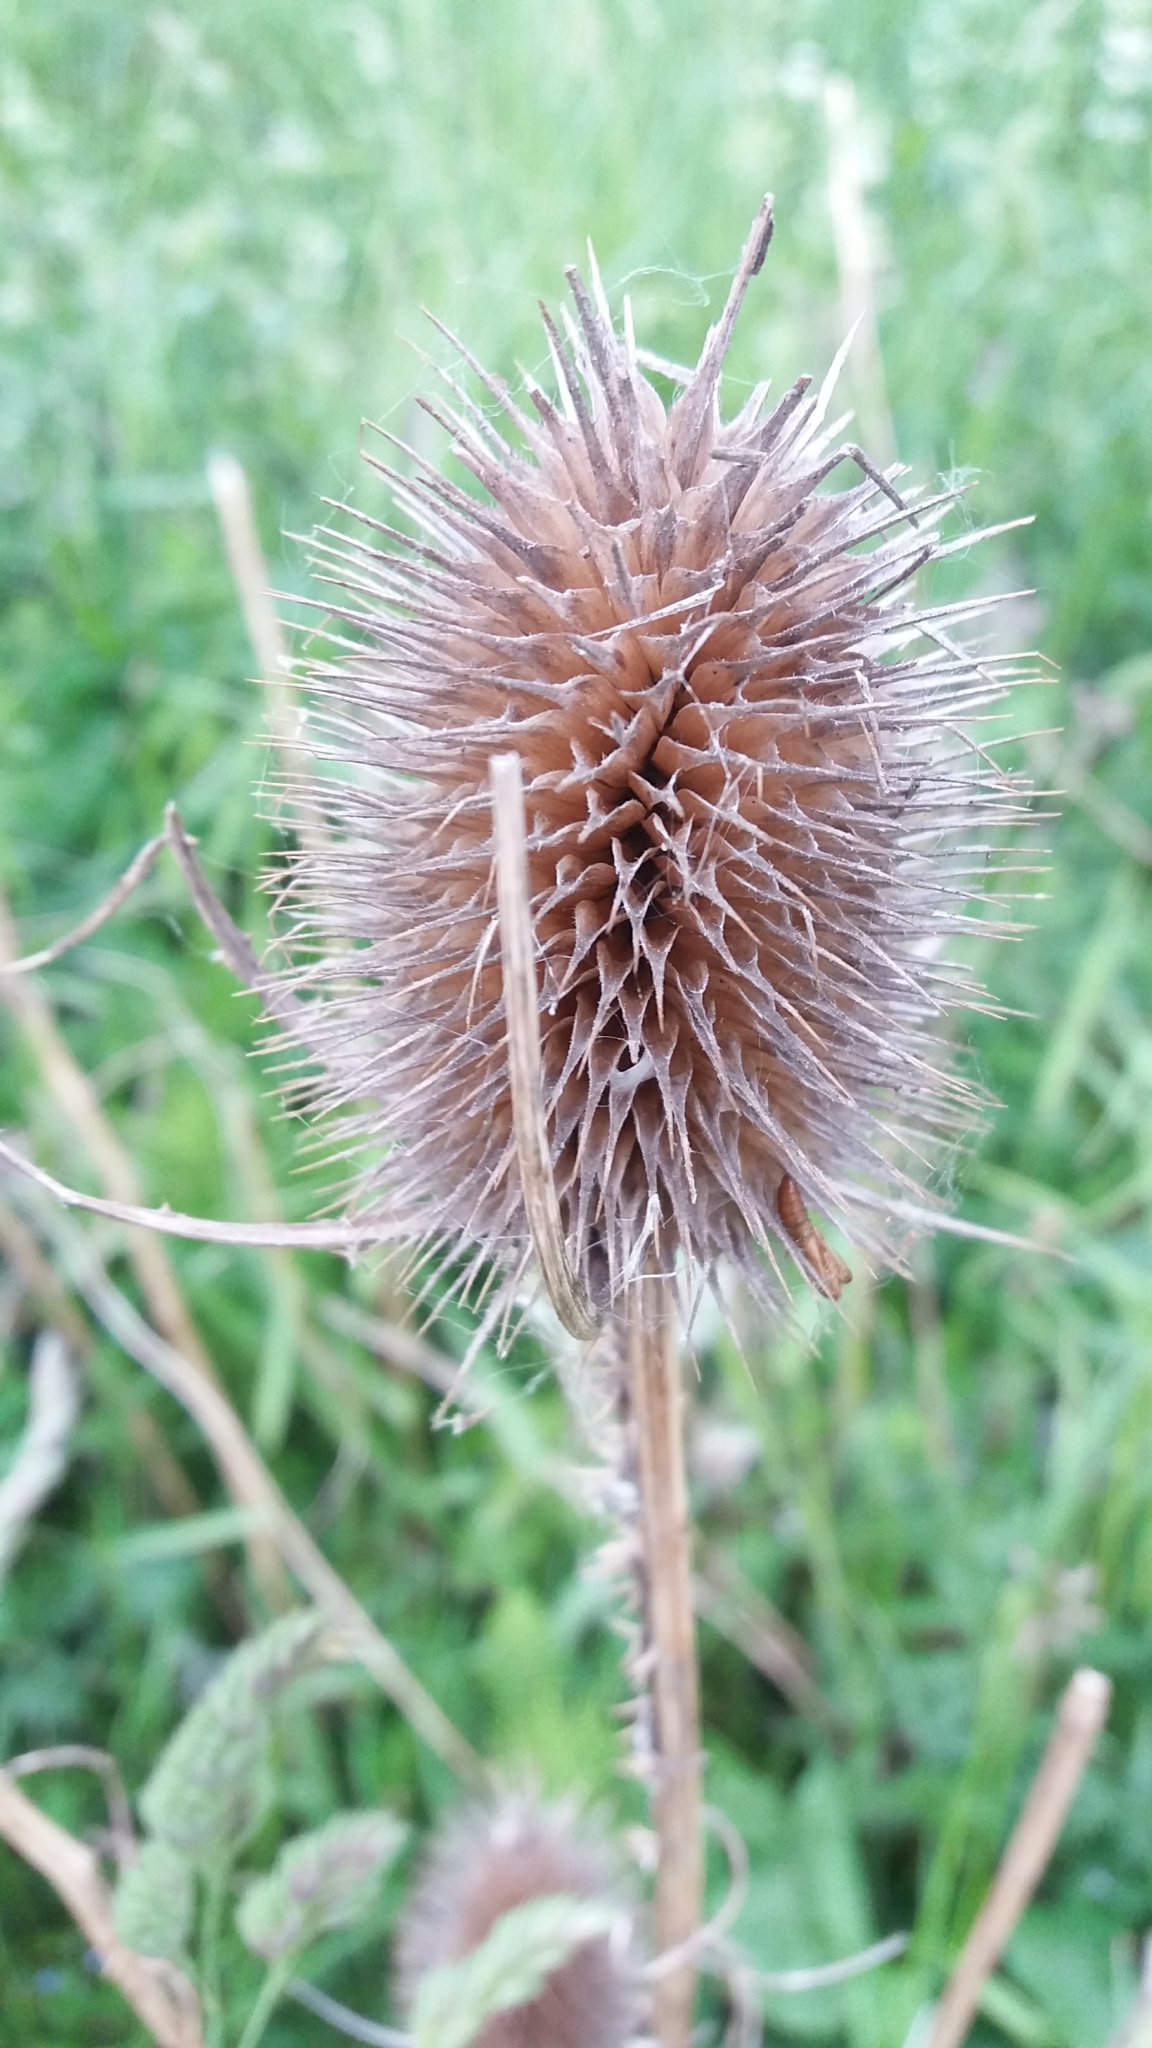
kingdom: Plantae
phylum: Tracheophyta
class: Magnoliopsida
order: Dipsacales
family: Caprifoliaceae
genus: Dipsacus
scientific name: Dipsacus fullonum
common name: Teasel
